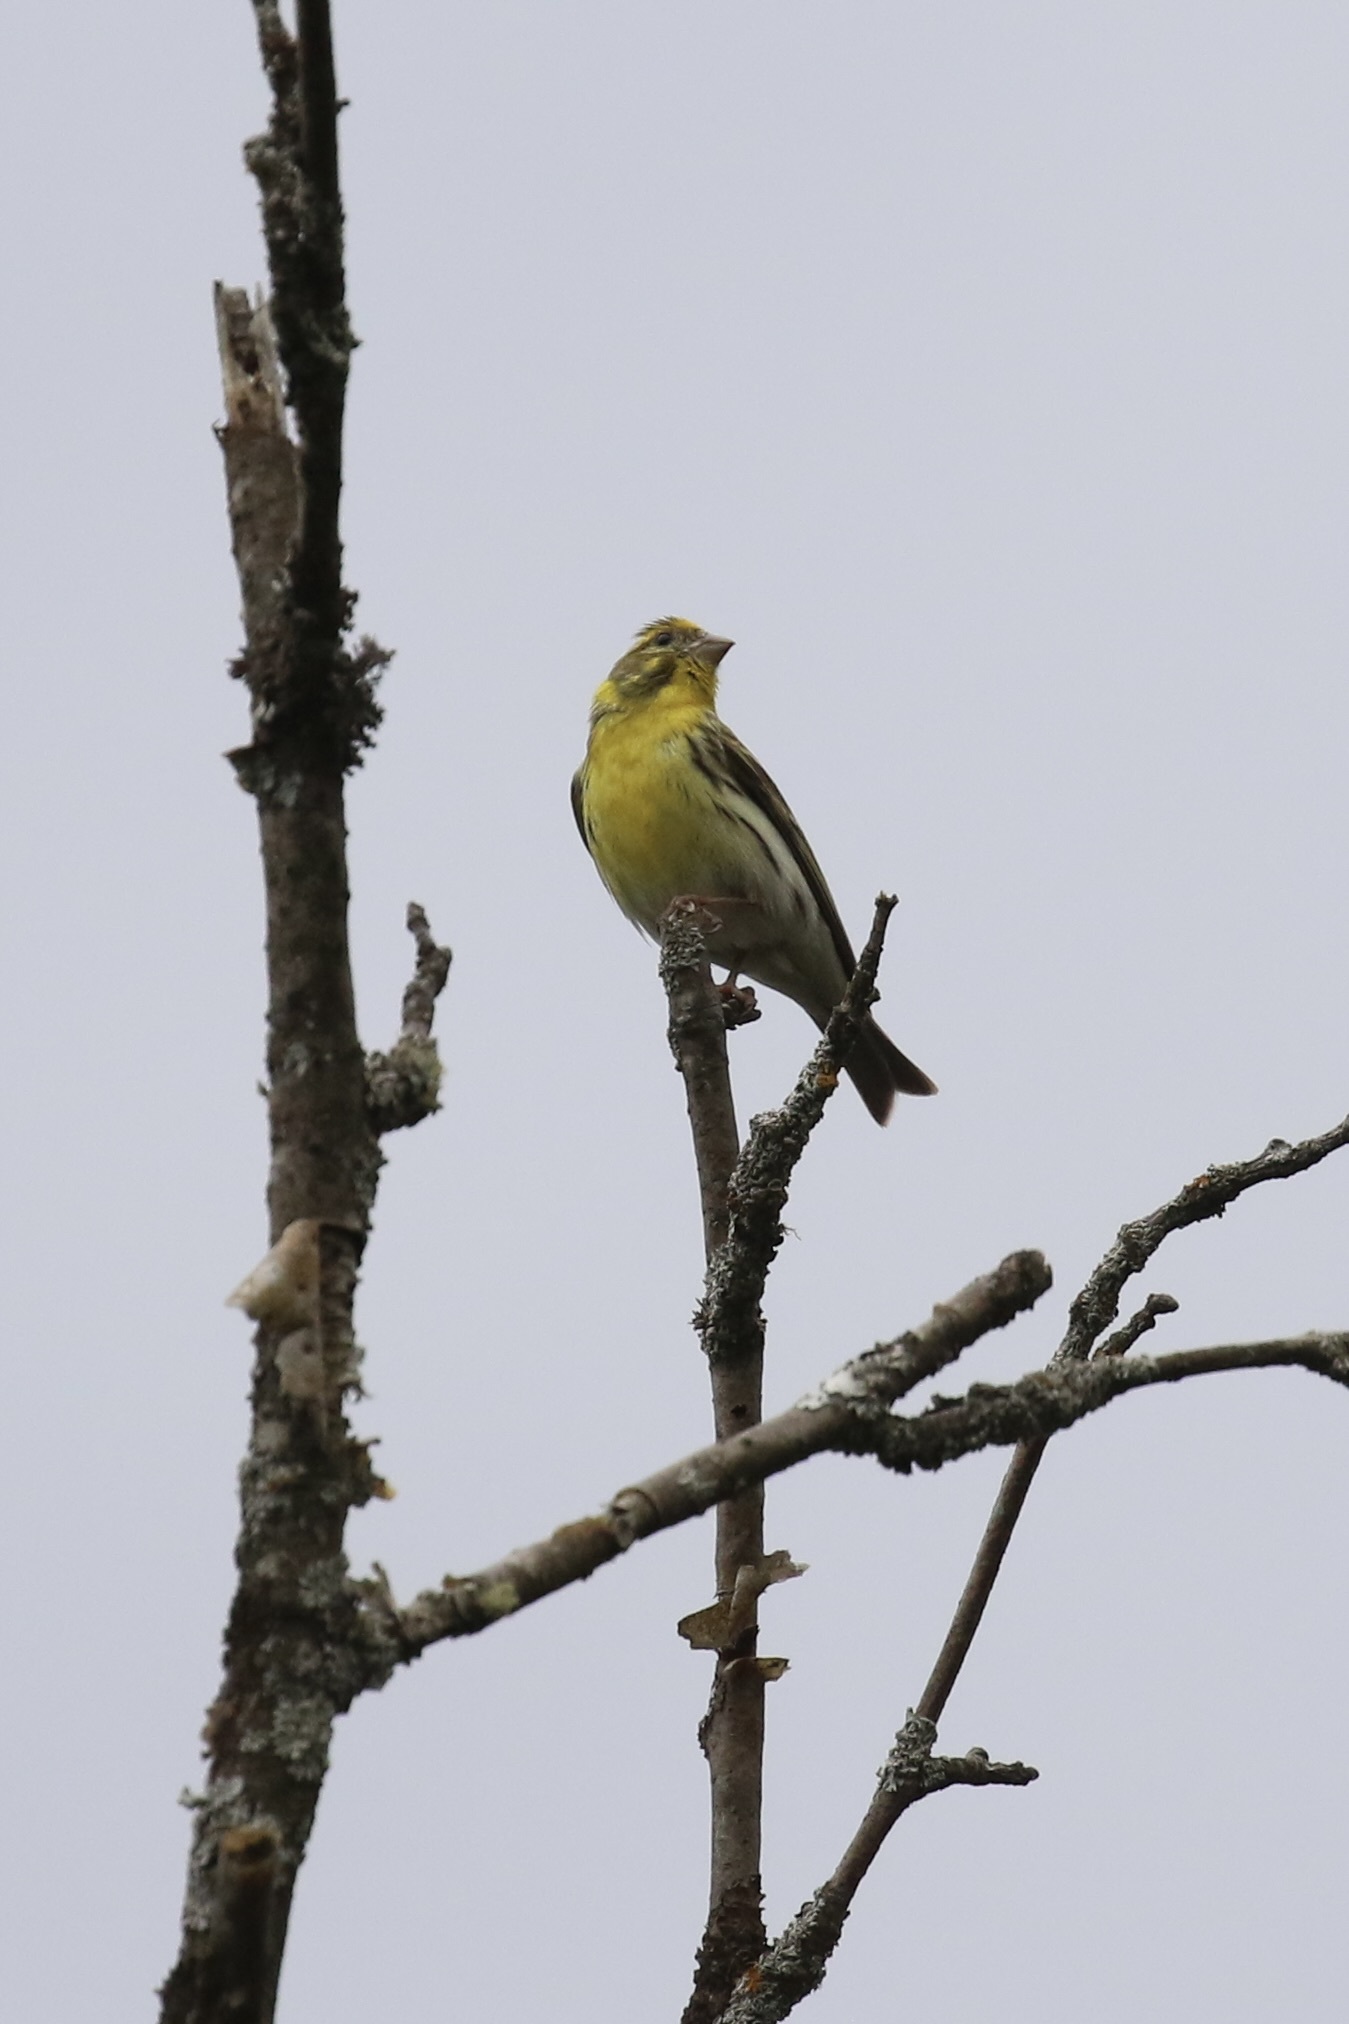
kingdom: Animalia
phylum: Chordata
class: Aves
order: Passeriformes
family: Fringillidae
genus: Serinus
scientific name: Serinus serinus
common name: European serin
